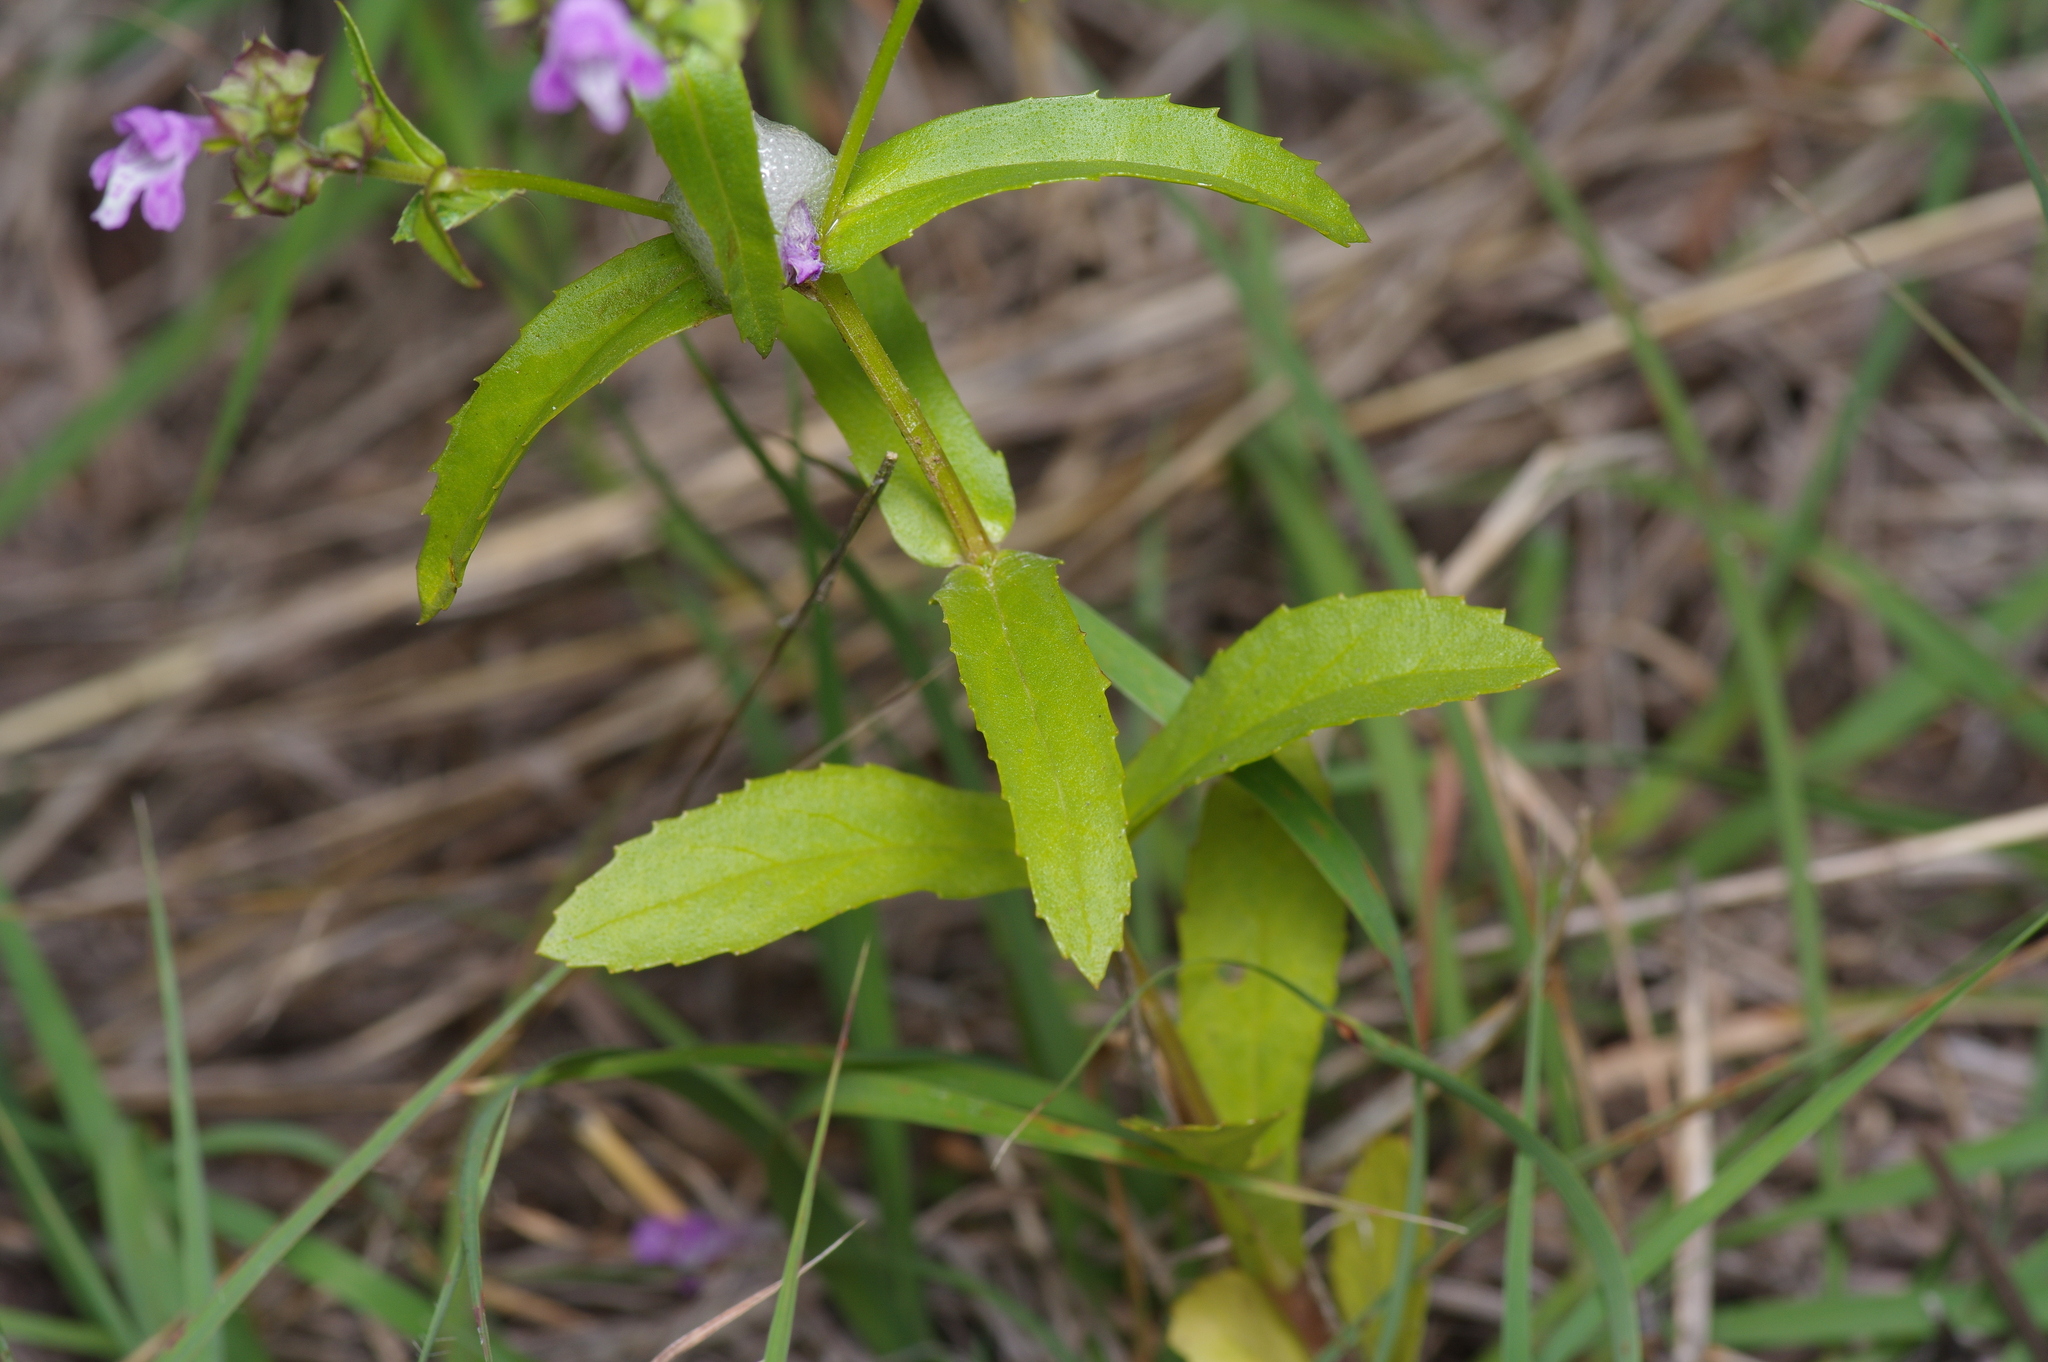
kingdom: Plantae
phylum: Tracheophyta
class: Magnoliopsida
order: Lamiales
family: Lamiaceae
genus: Warnockia
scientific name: Warnockia scutellarioides
